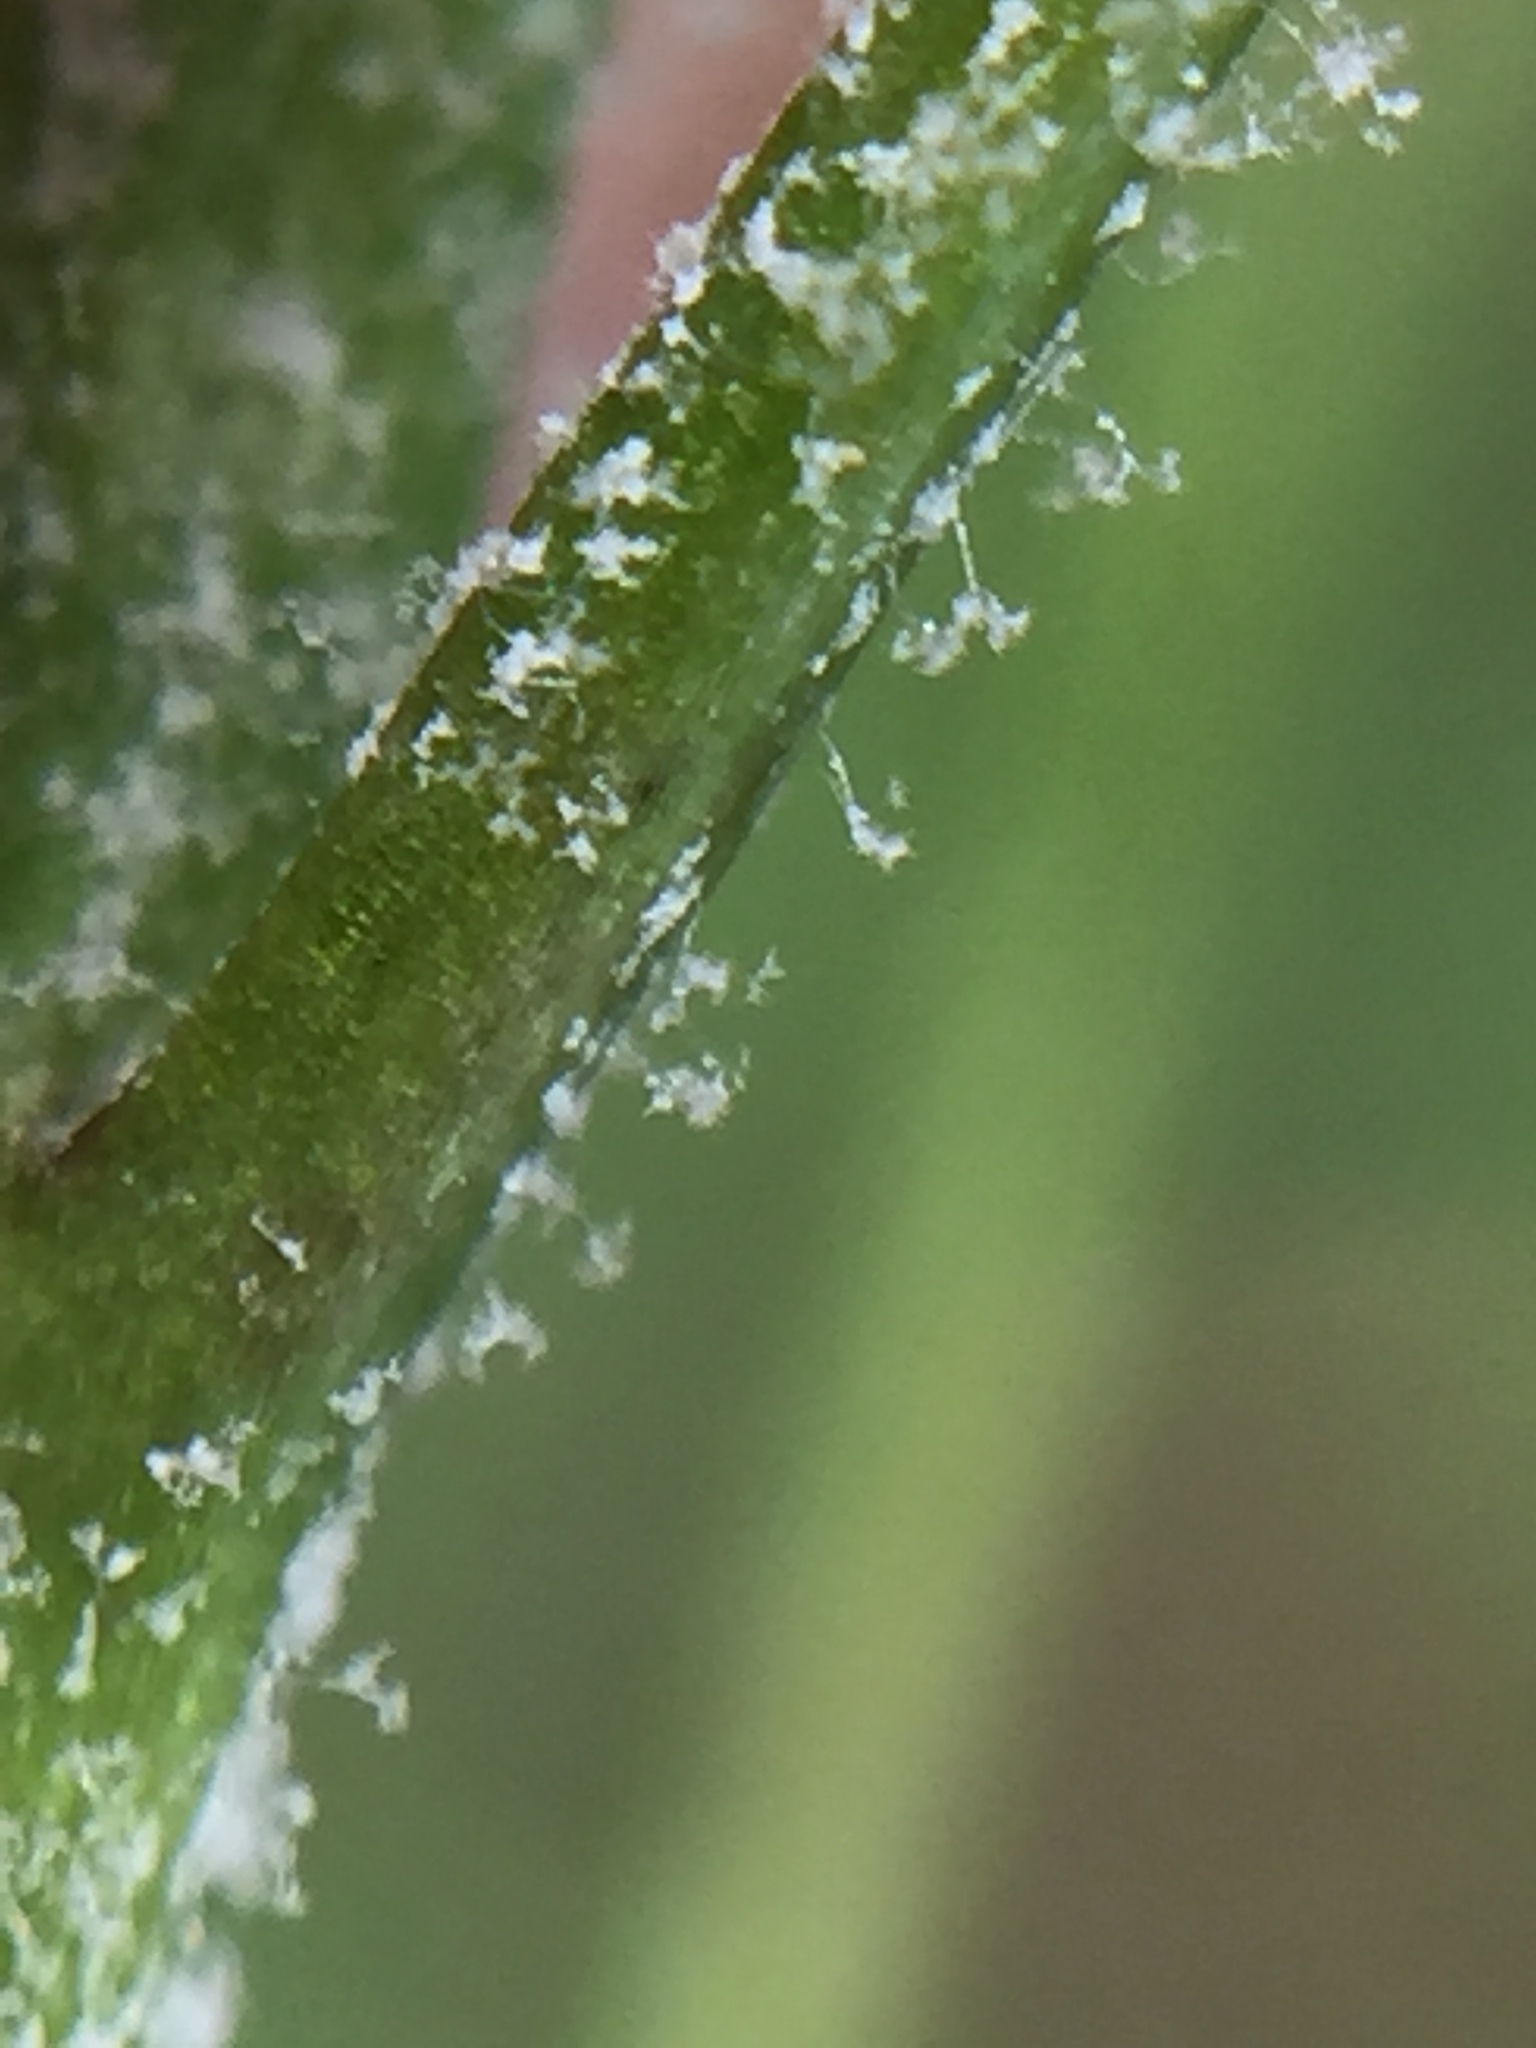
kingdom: Chromista
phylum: Oomycota
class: Peronosporea
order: Peronosporales
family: Peronosporaceae
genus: Hyaloperonospora
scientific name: Hyaloperonospora parasitica
